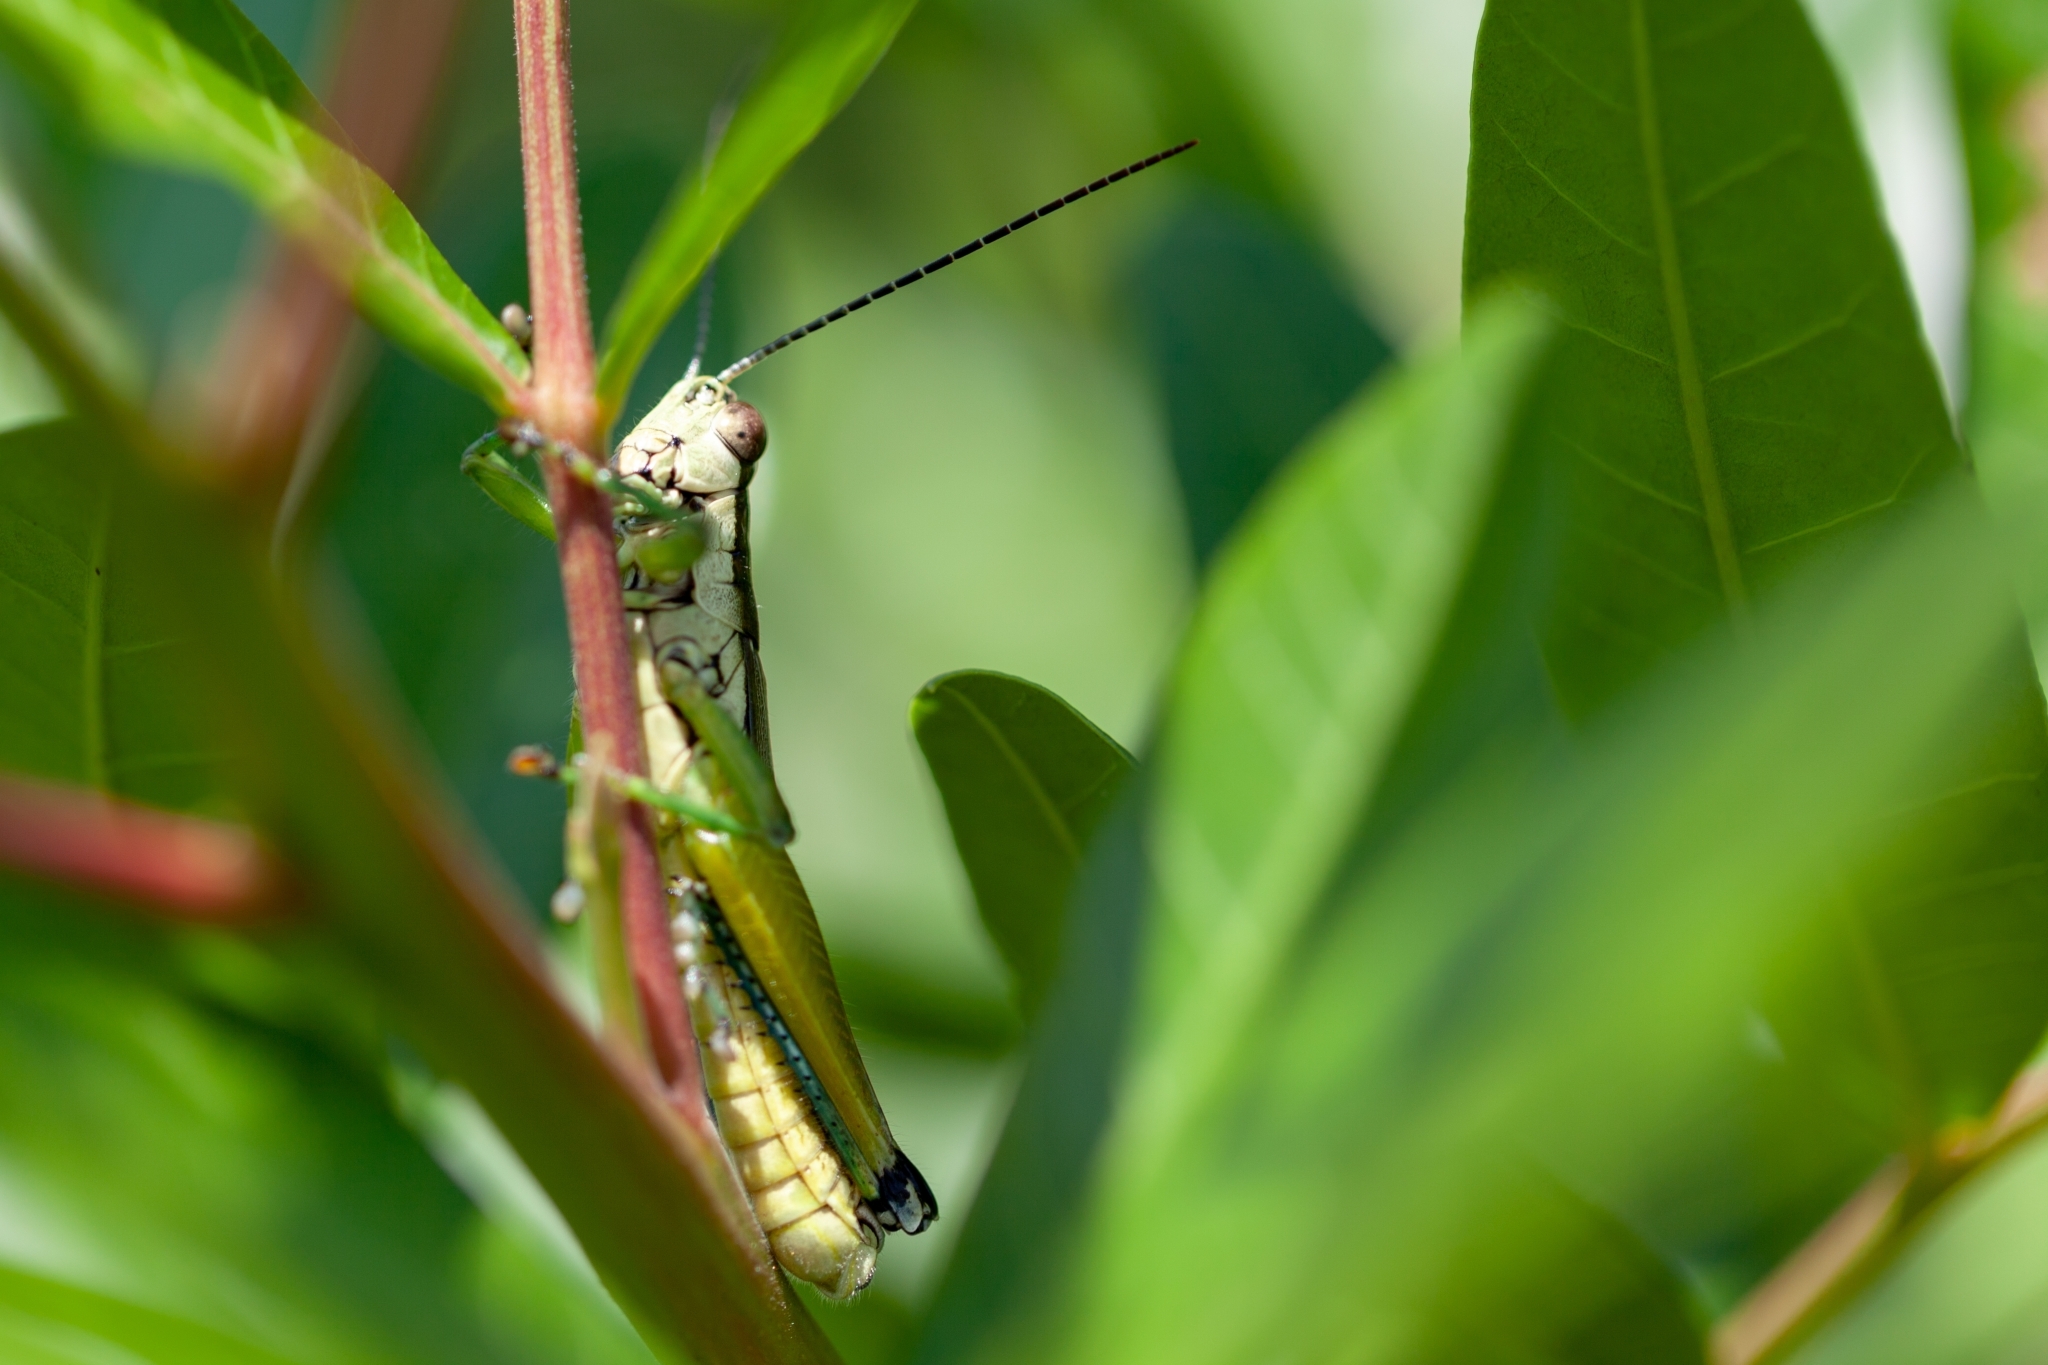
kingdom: Animalia
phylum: Arthropoda
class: Insecta
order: Orthoptera
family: Acrididae
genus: Paroxya
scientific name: Paroxya clavuligera
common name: Olive-green swamp grasshopper
